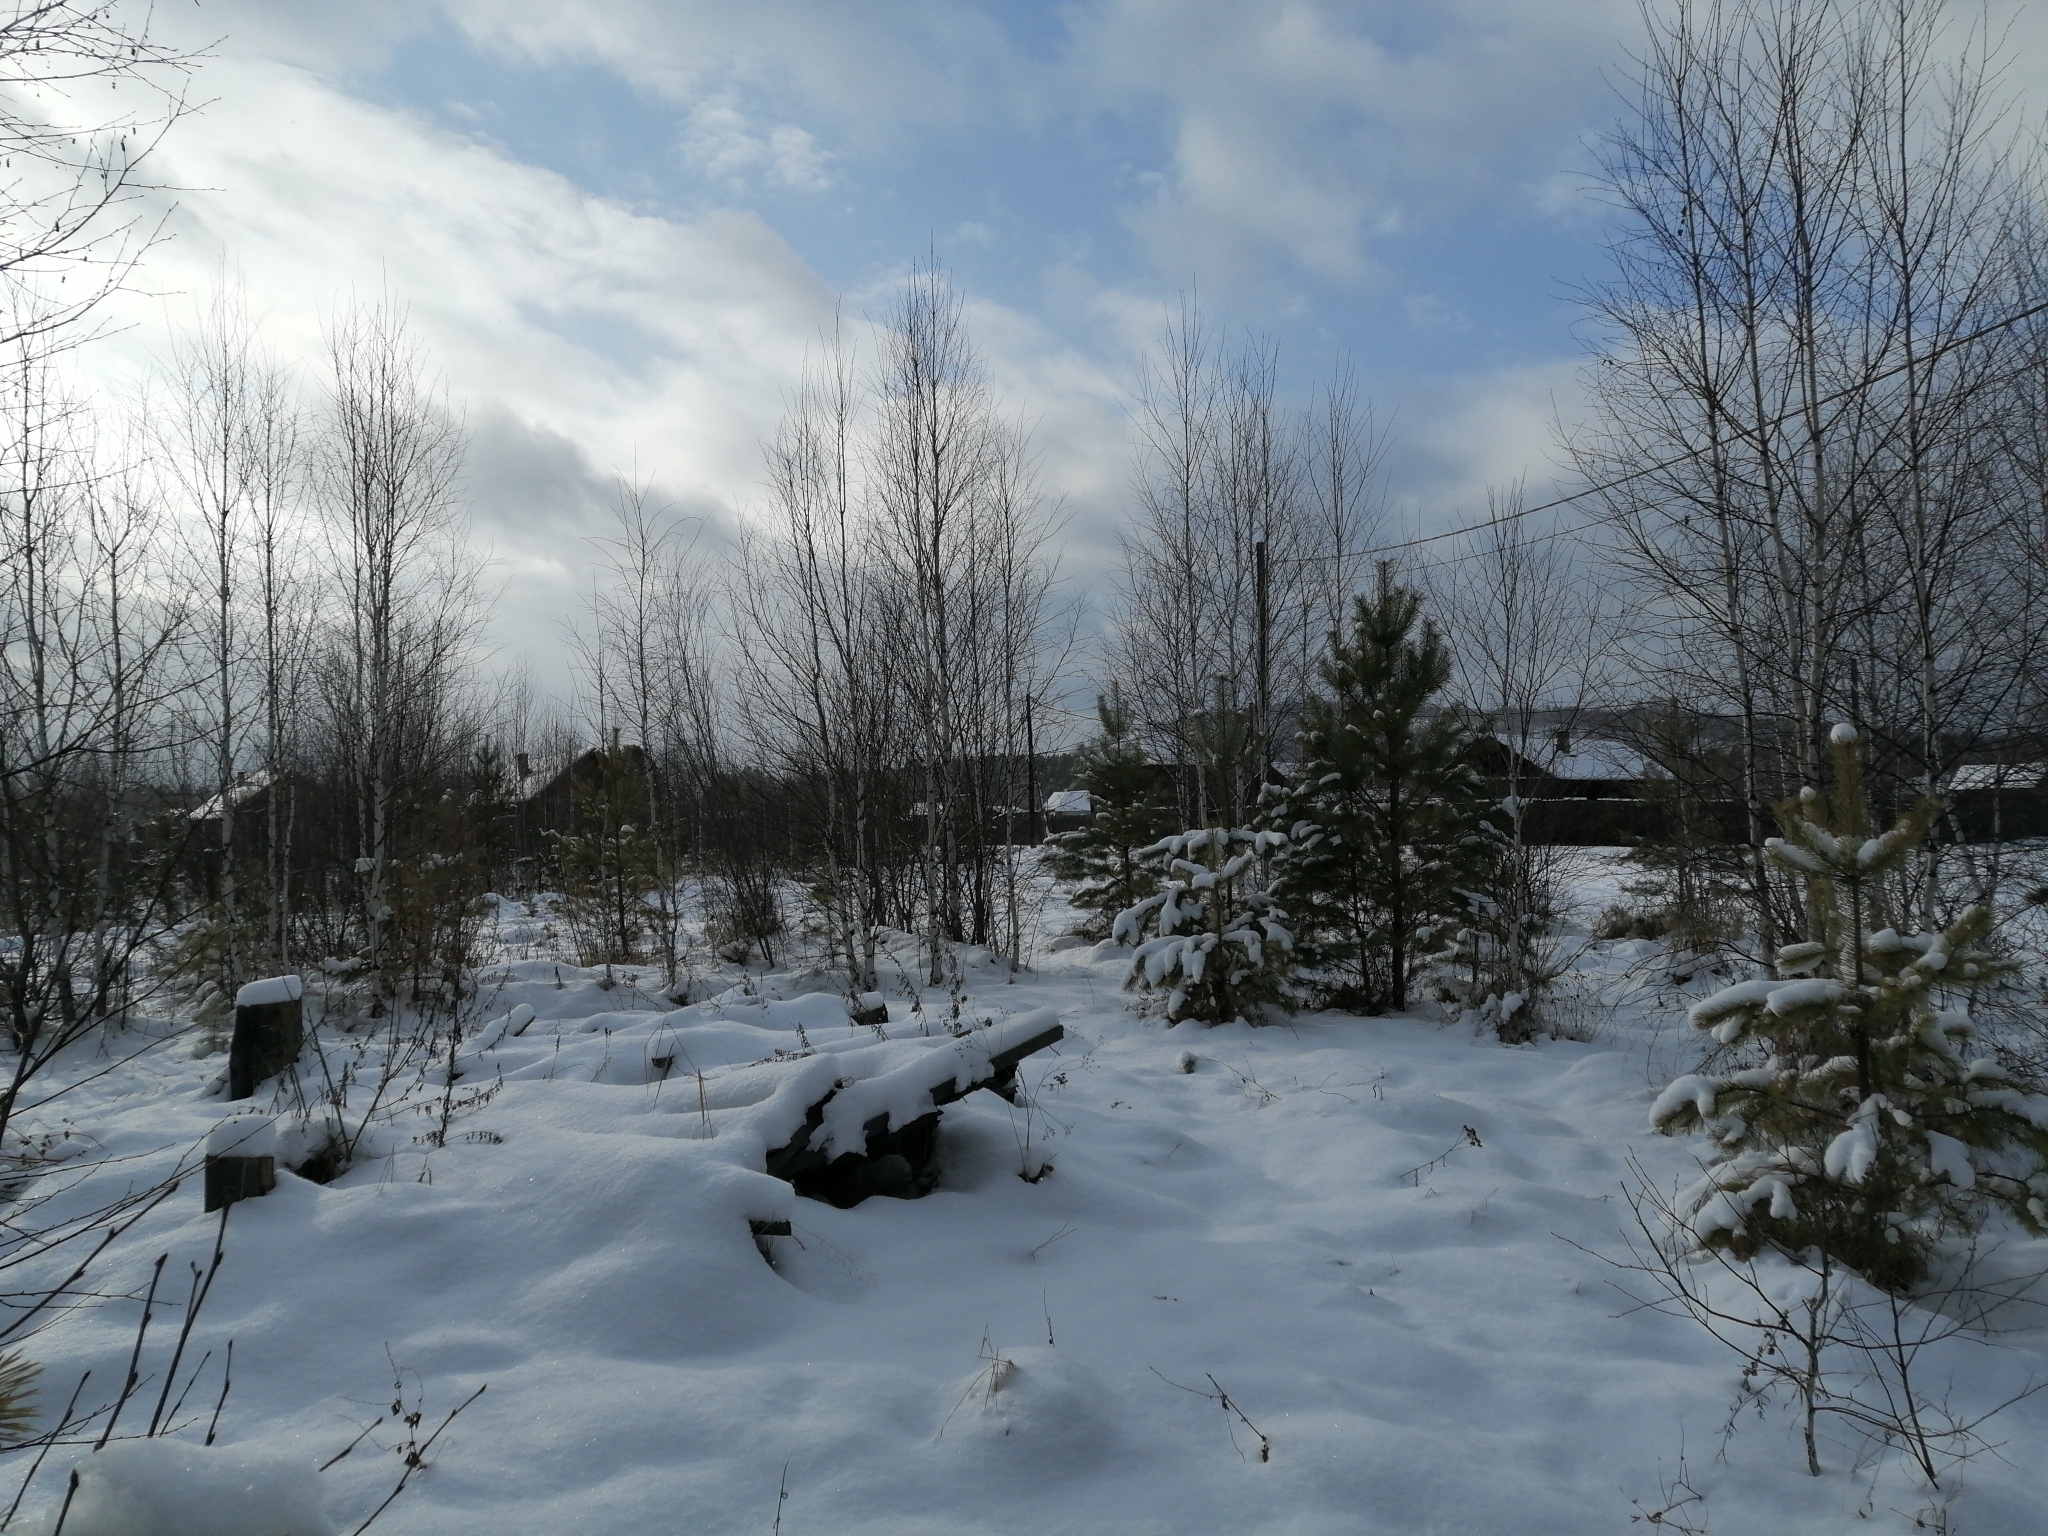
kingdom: Plantae
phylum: Tracheophyta
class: Pinopsida
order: Pinales
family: Pinaceae
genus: Pinus
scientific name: Pinus sylvestris
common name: Scots pine
